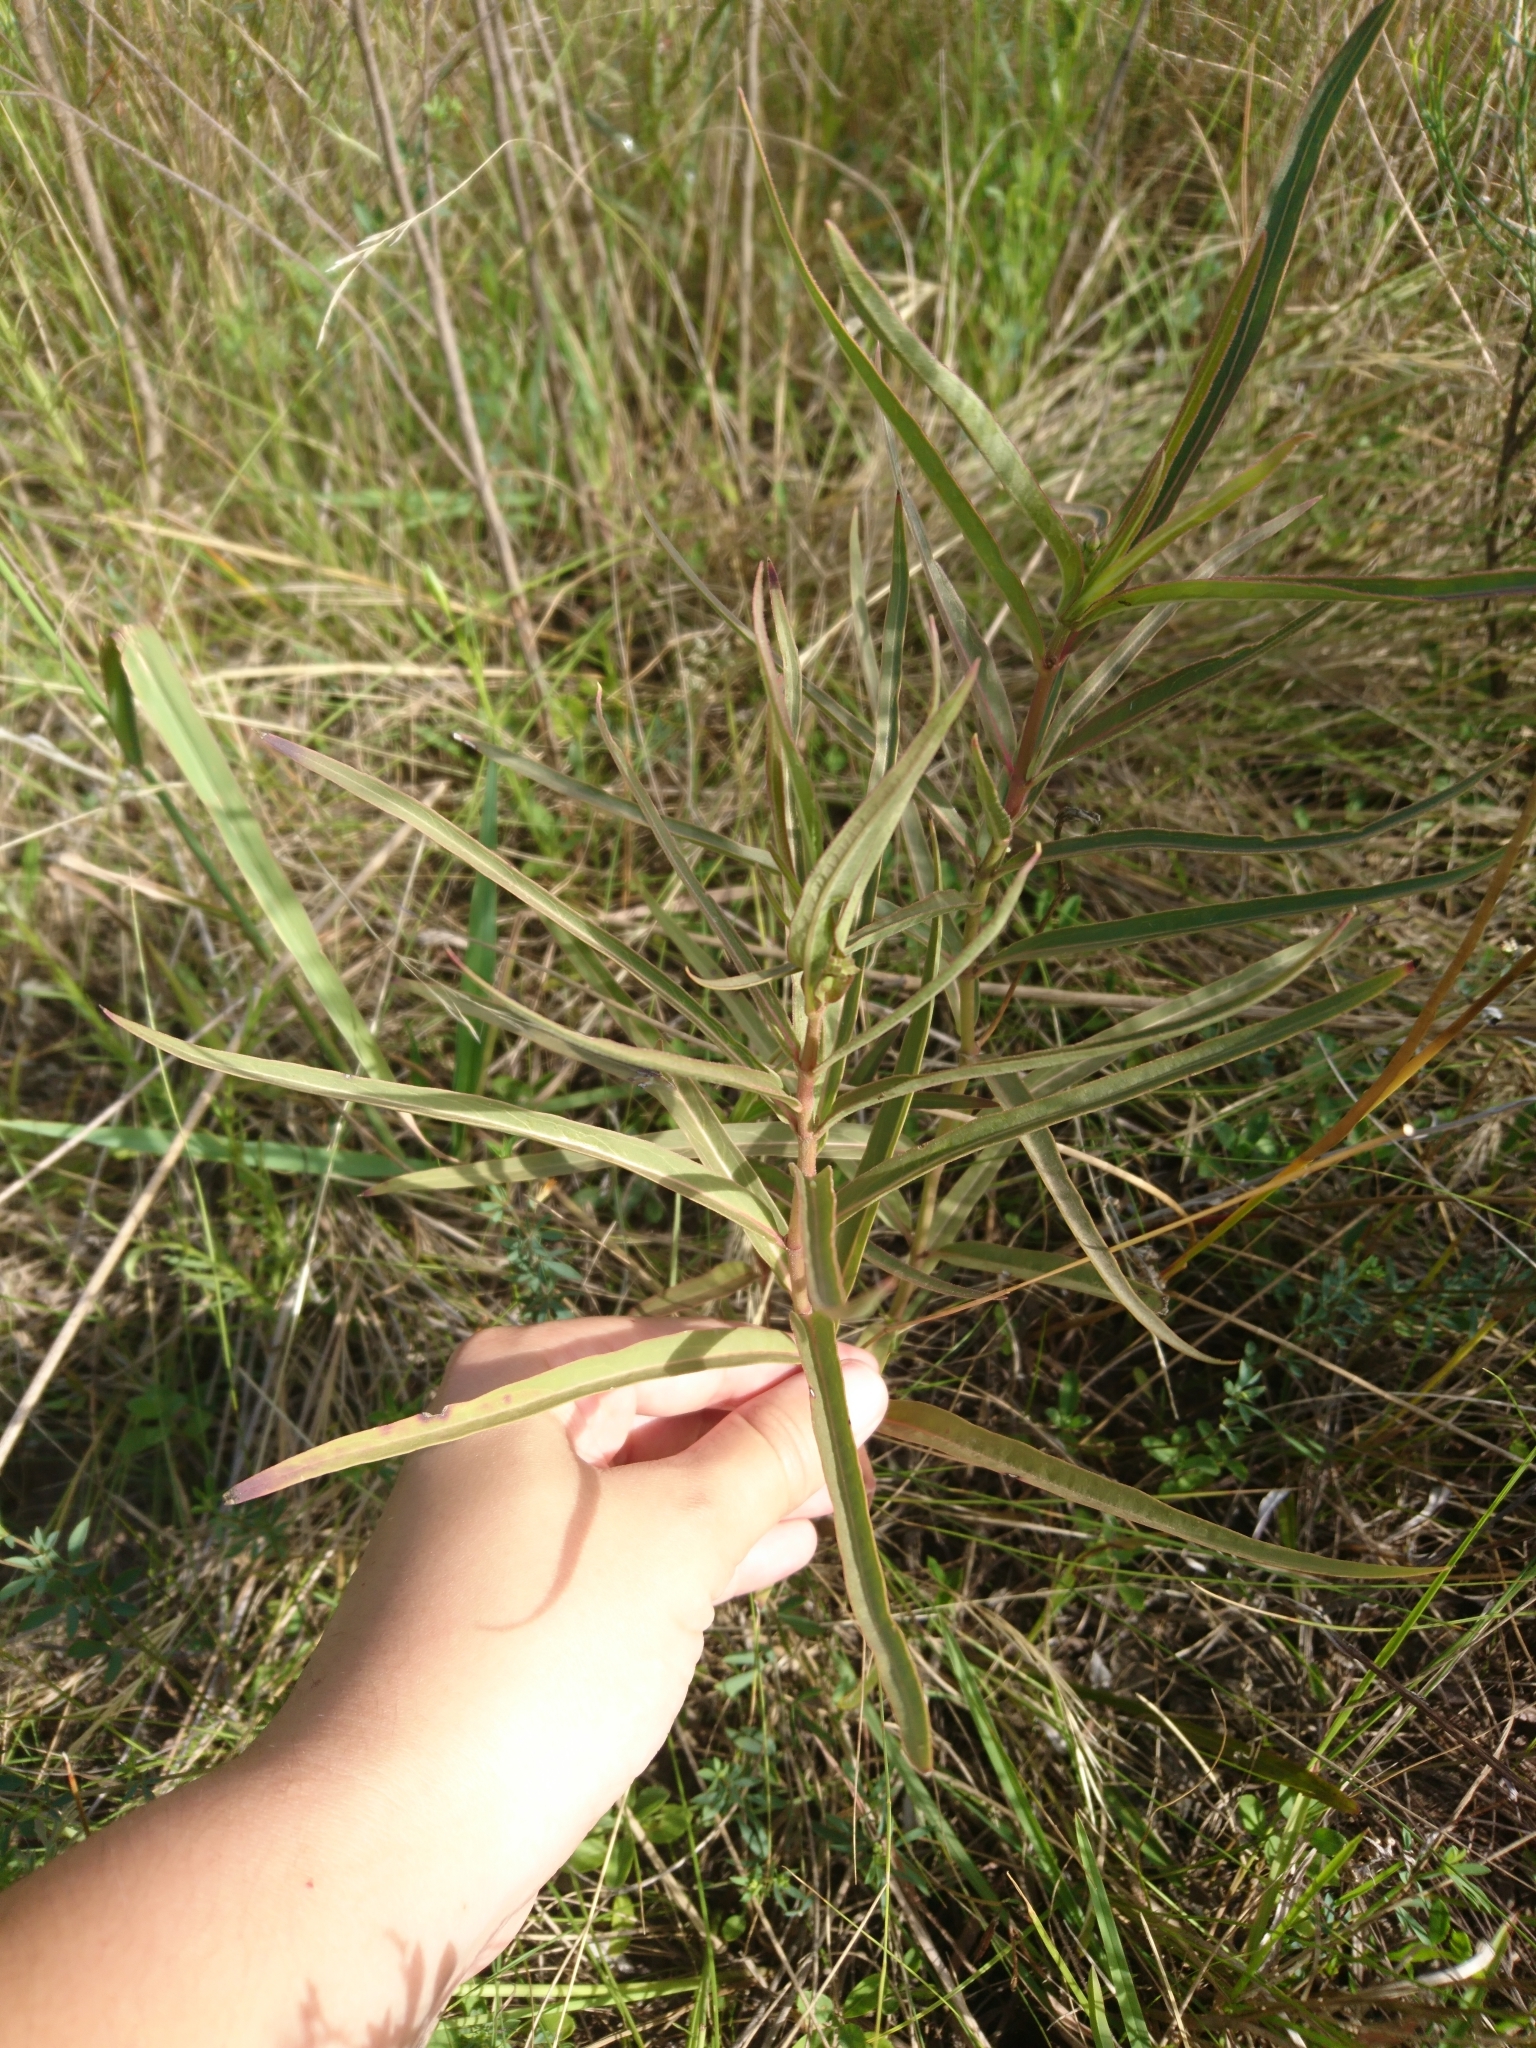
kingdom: Plantae
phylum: Tracheophyta
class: Magnoliopsida
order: Gentianales
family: Apocynaceae
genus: Asclepias
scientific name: Asclepias mellodora
